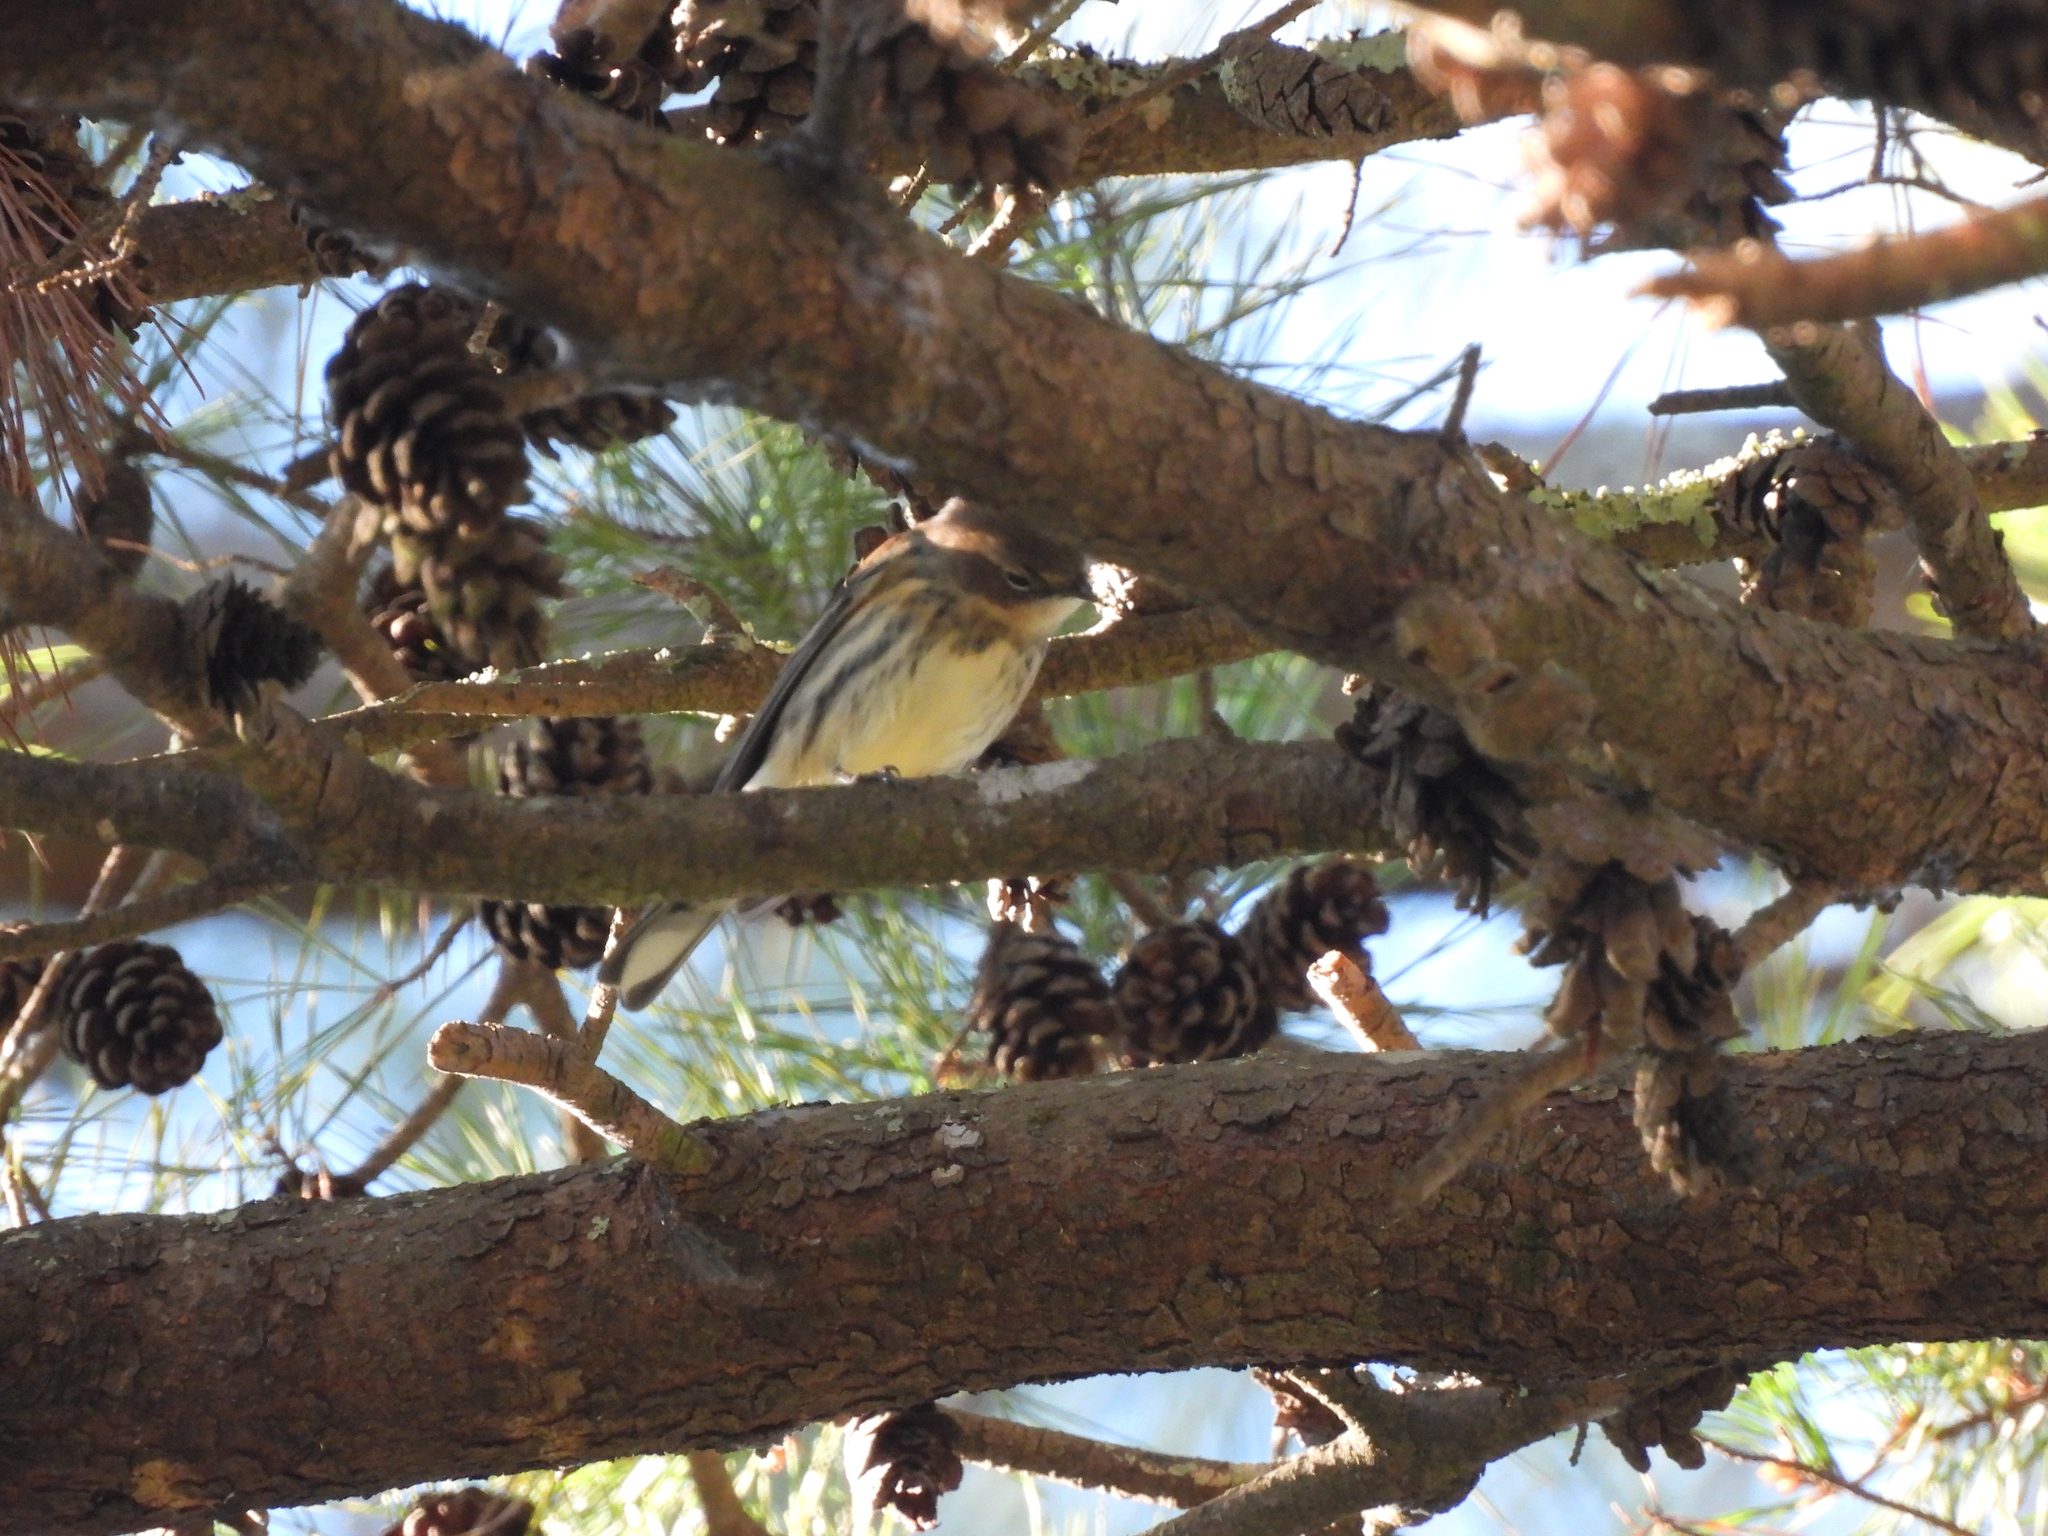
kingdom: Animalia
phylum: Chordata
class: Aves
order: Passeriformes
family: Parulidae
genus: Setophaga
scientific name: Setophaga coronata
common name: Myrtle warbler
